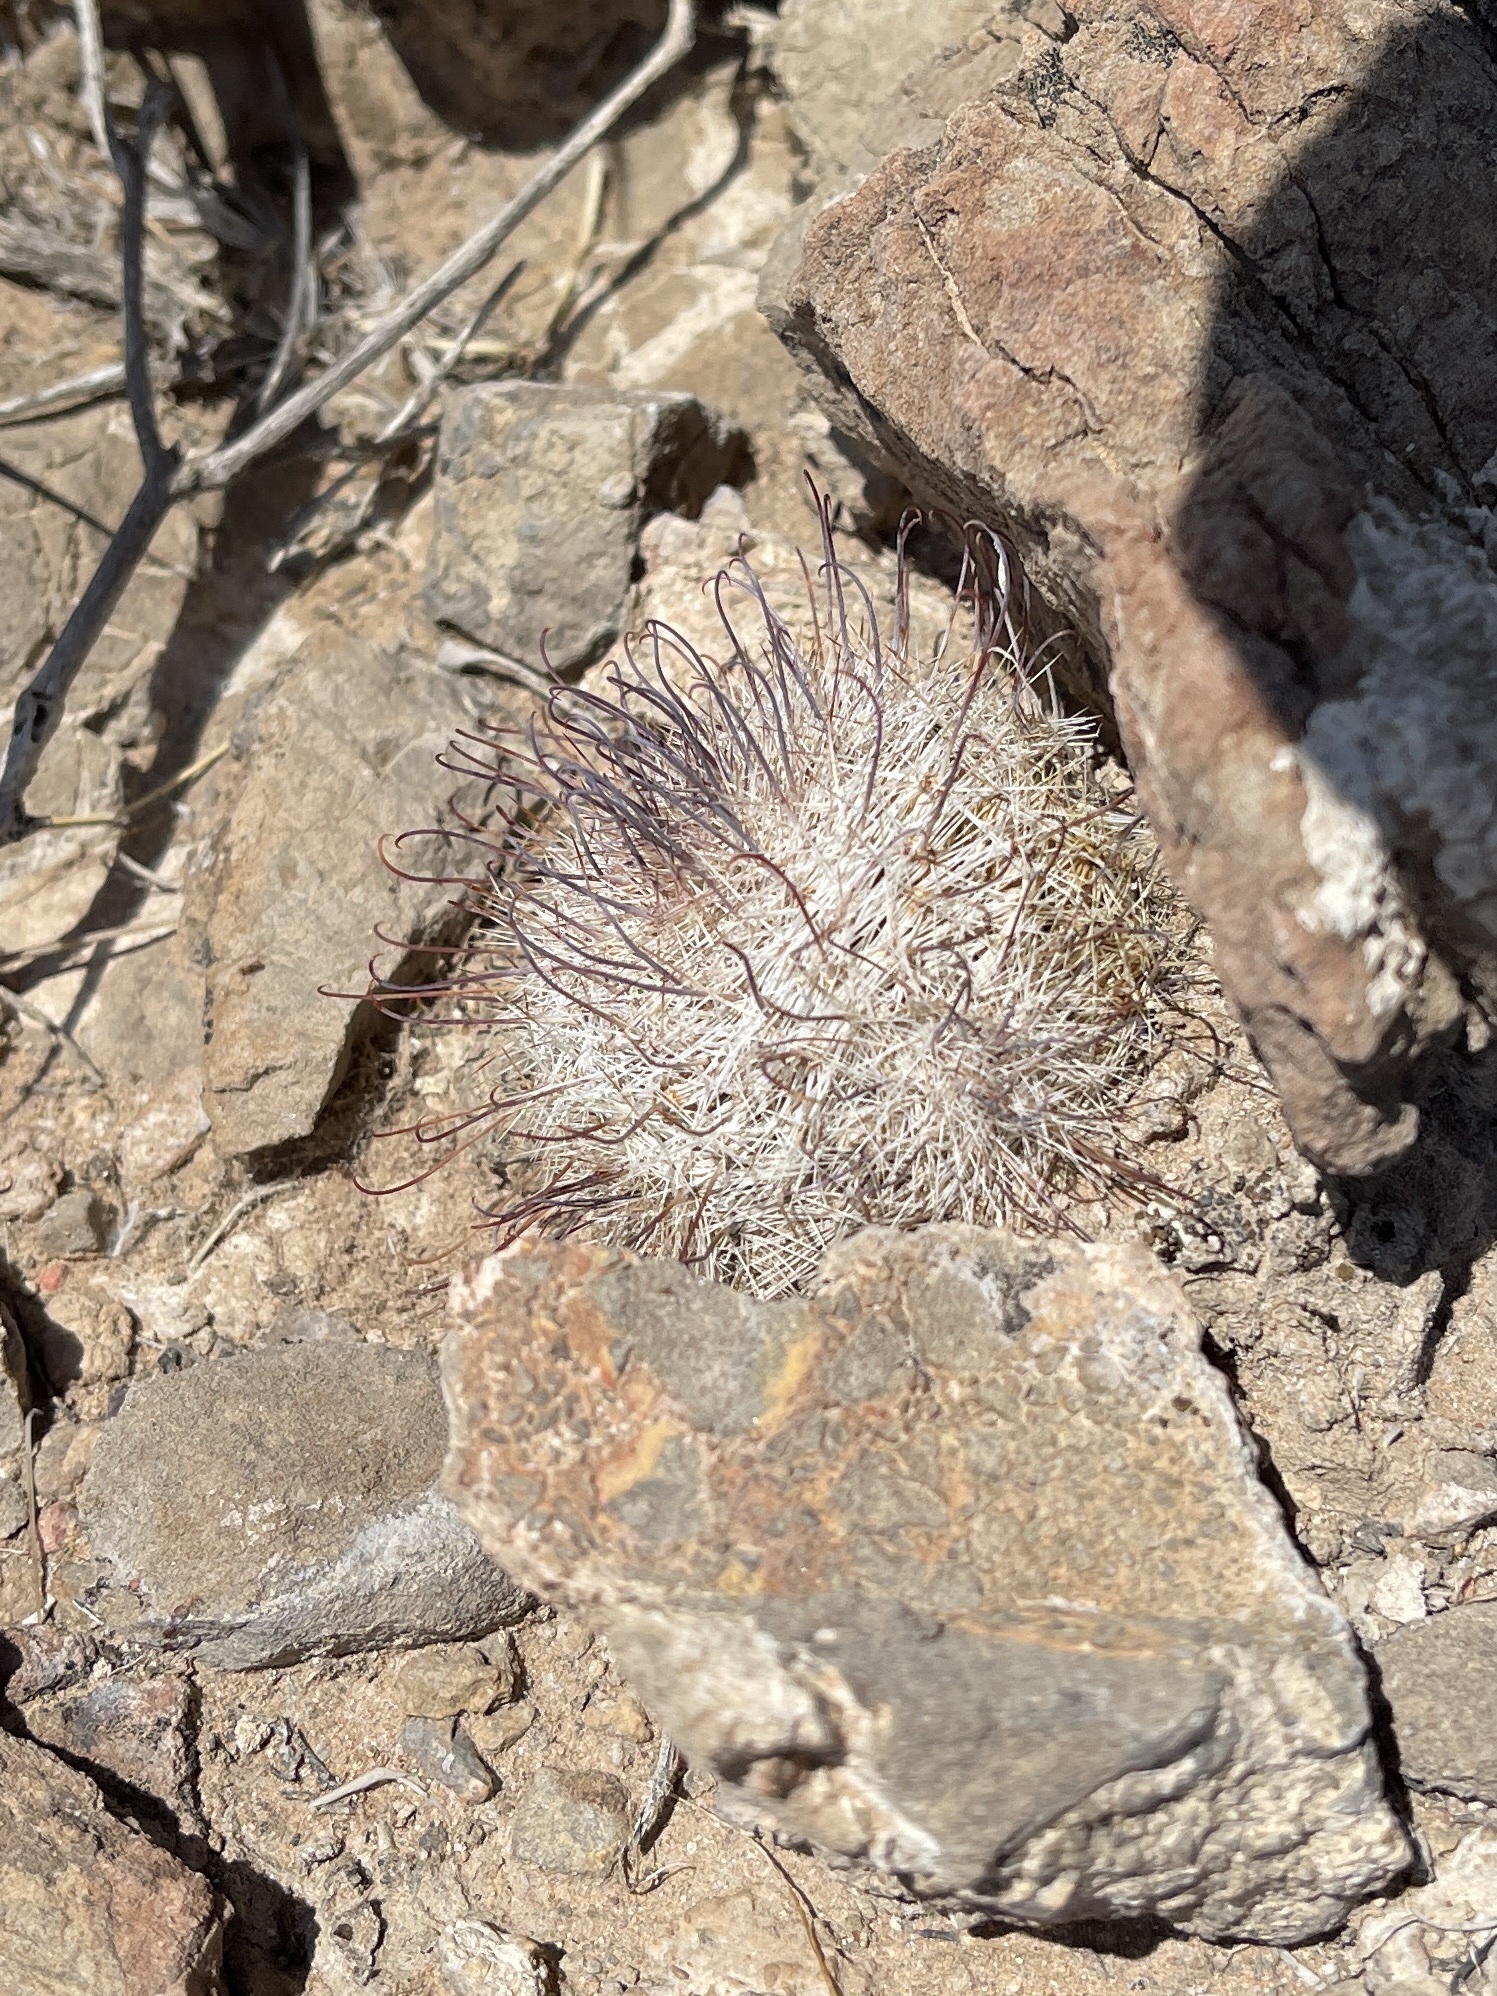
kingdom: Plantae
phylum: Tracheophyta
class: Magnoliopsida
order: Caryophyllales
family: Cactaceae
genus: Cochemiea
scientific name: Cochemiea grahamii
